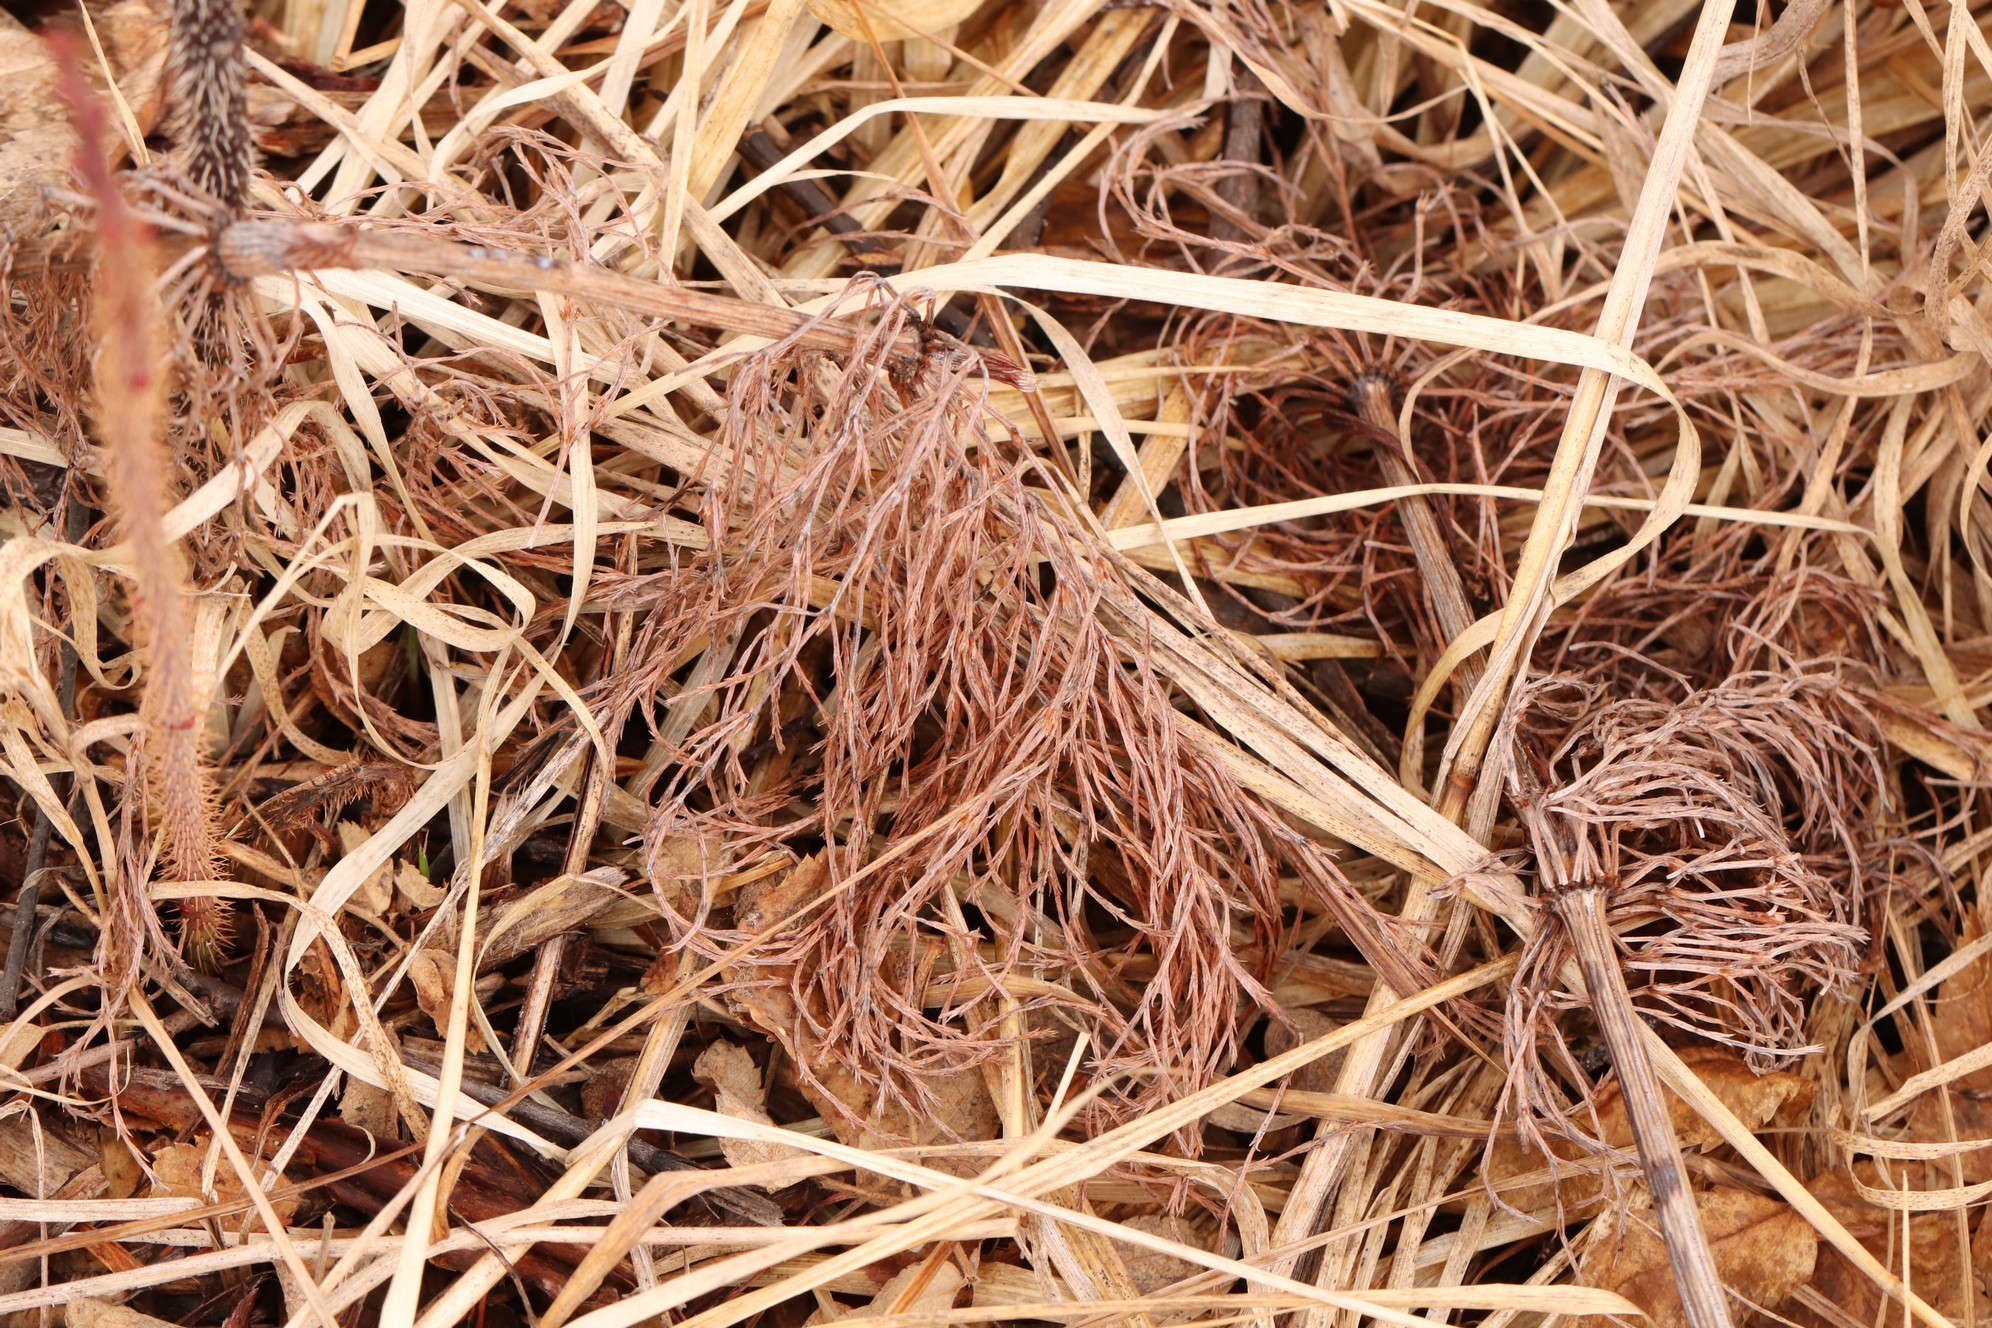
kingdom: Plantae
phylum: Tracheophyta
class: Polypodiopsida
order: Equisetales
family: Equisetaceae
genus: Equisetum
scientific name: Equisetum sylvaticum
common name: Wood horsetail
